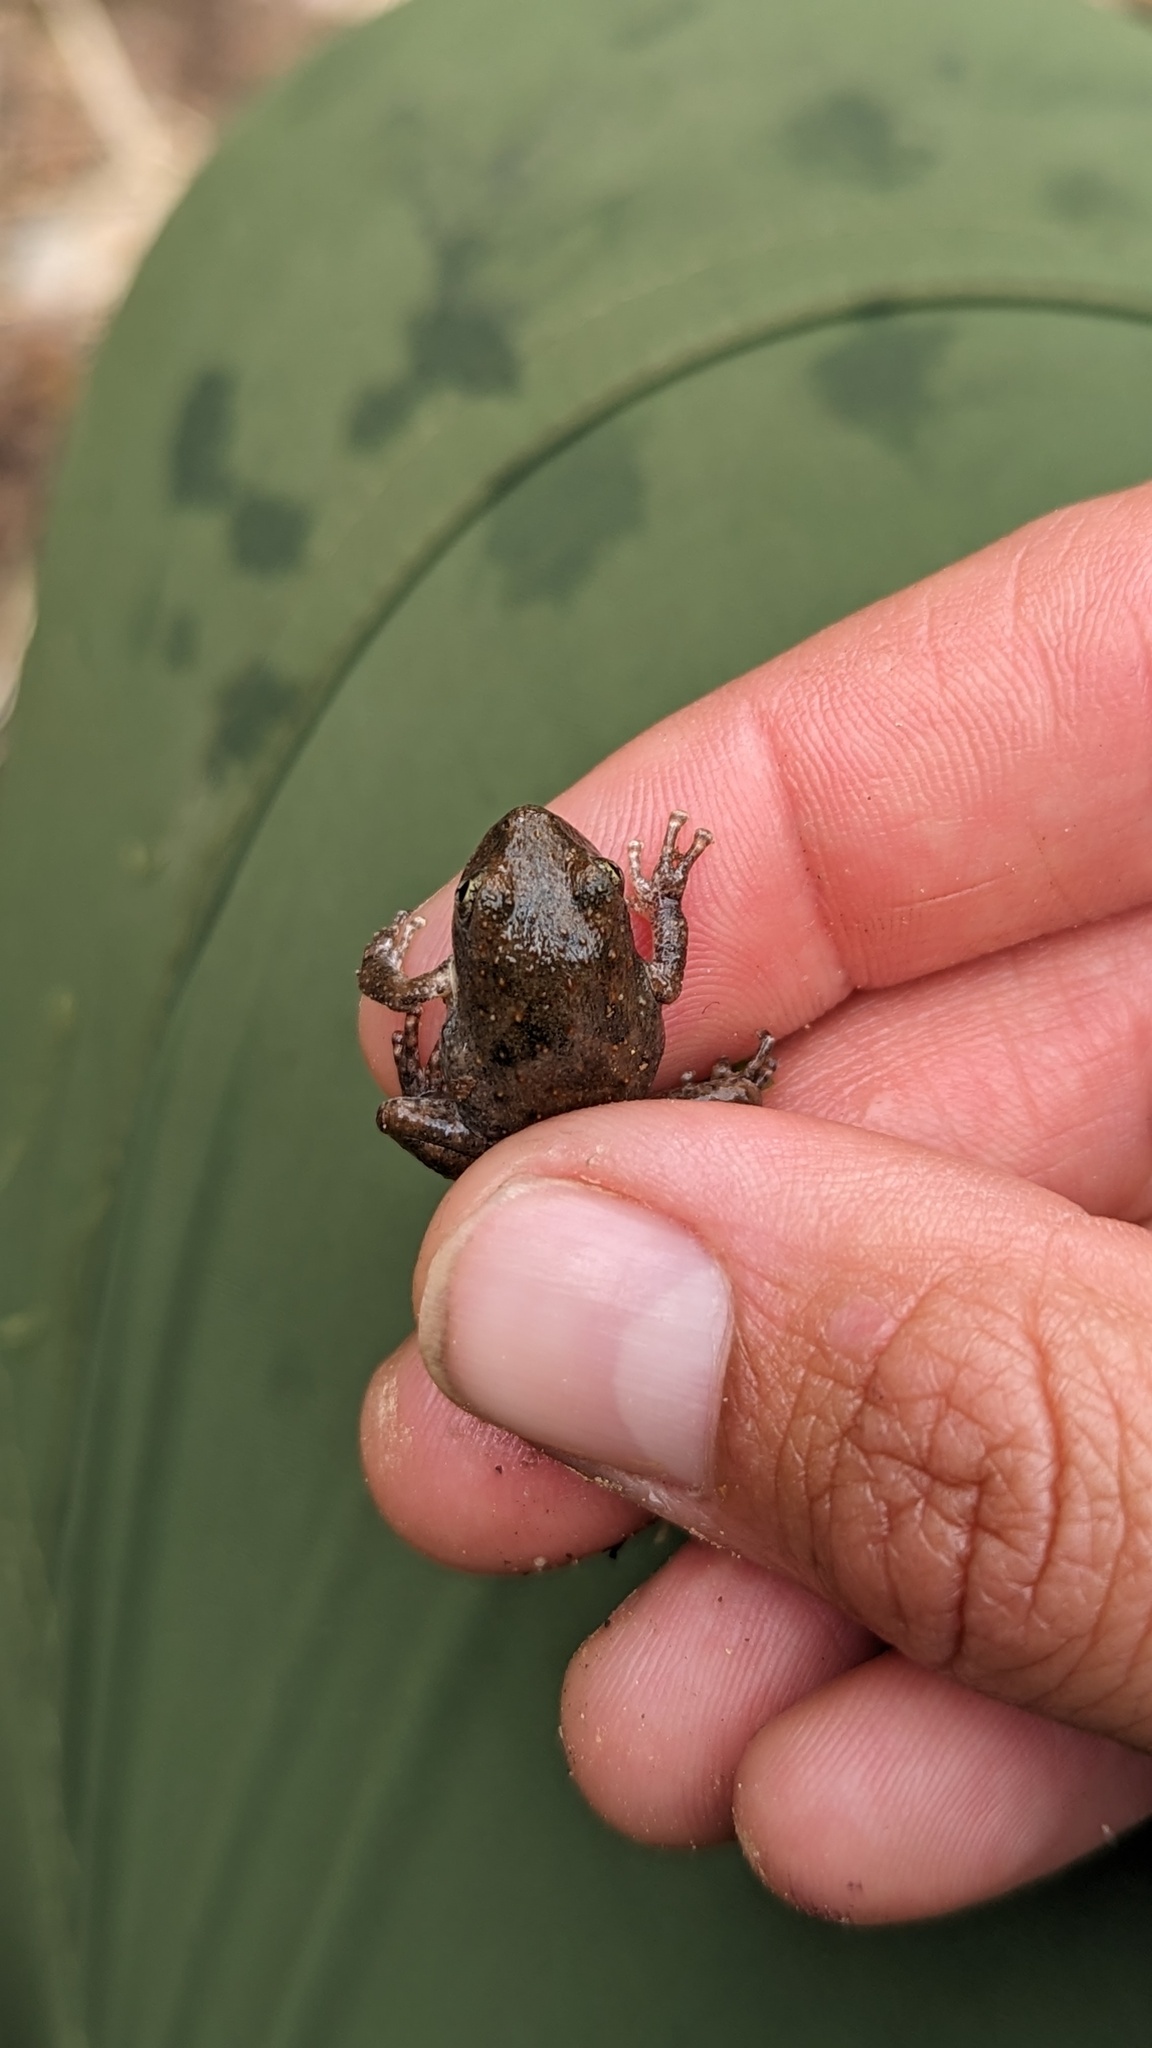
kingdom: Animalia
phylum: Chordata
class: Amphibia
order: Anura
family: Hylidae
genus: Pseudacris
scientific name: Pseudacris cadaverina
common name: California chorus frog
